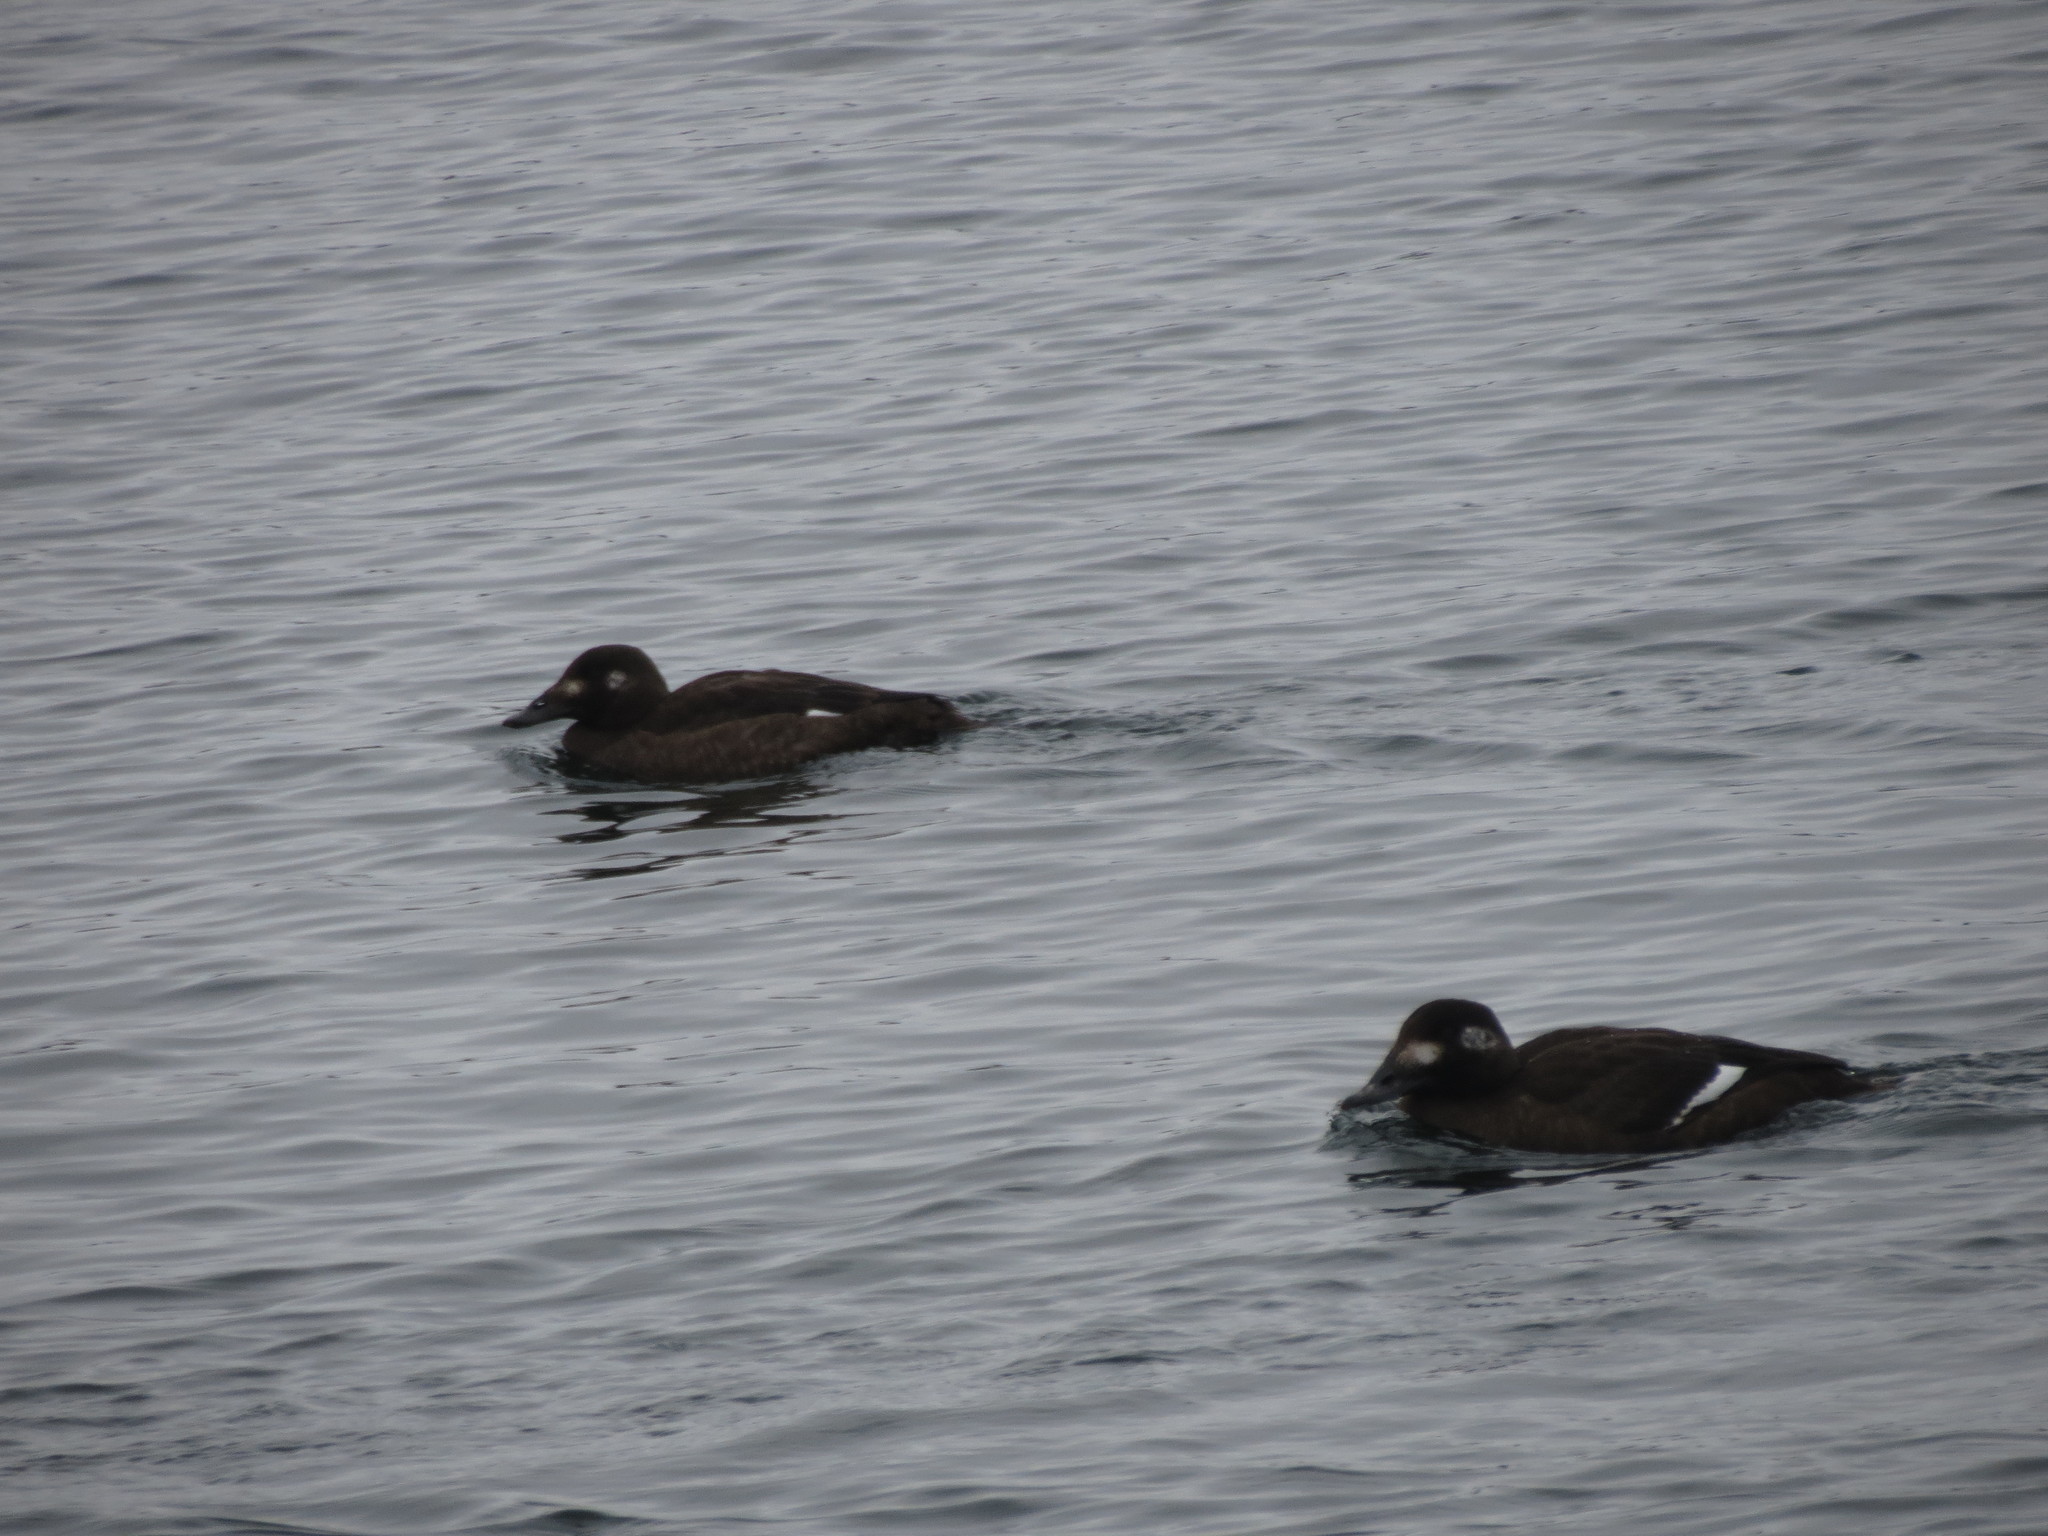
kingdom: Animalia
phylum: Chordata
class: Aves
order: Anseriformes
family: Anatidae
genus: Melanitta
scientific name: Melanitta deglandi
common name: White-winged scoter
